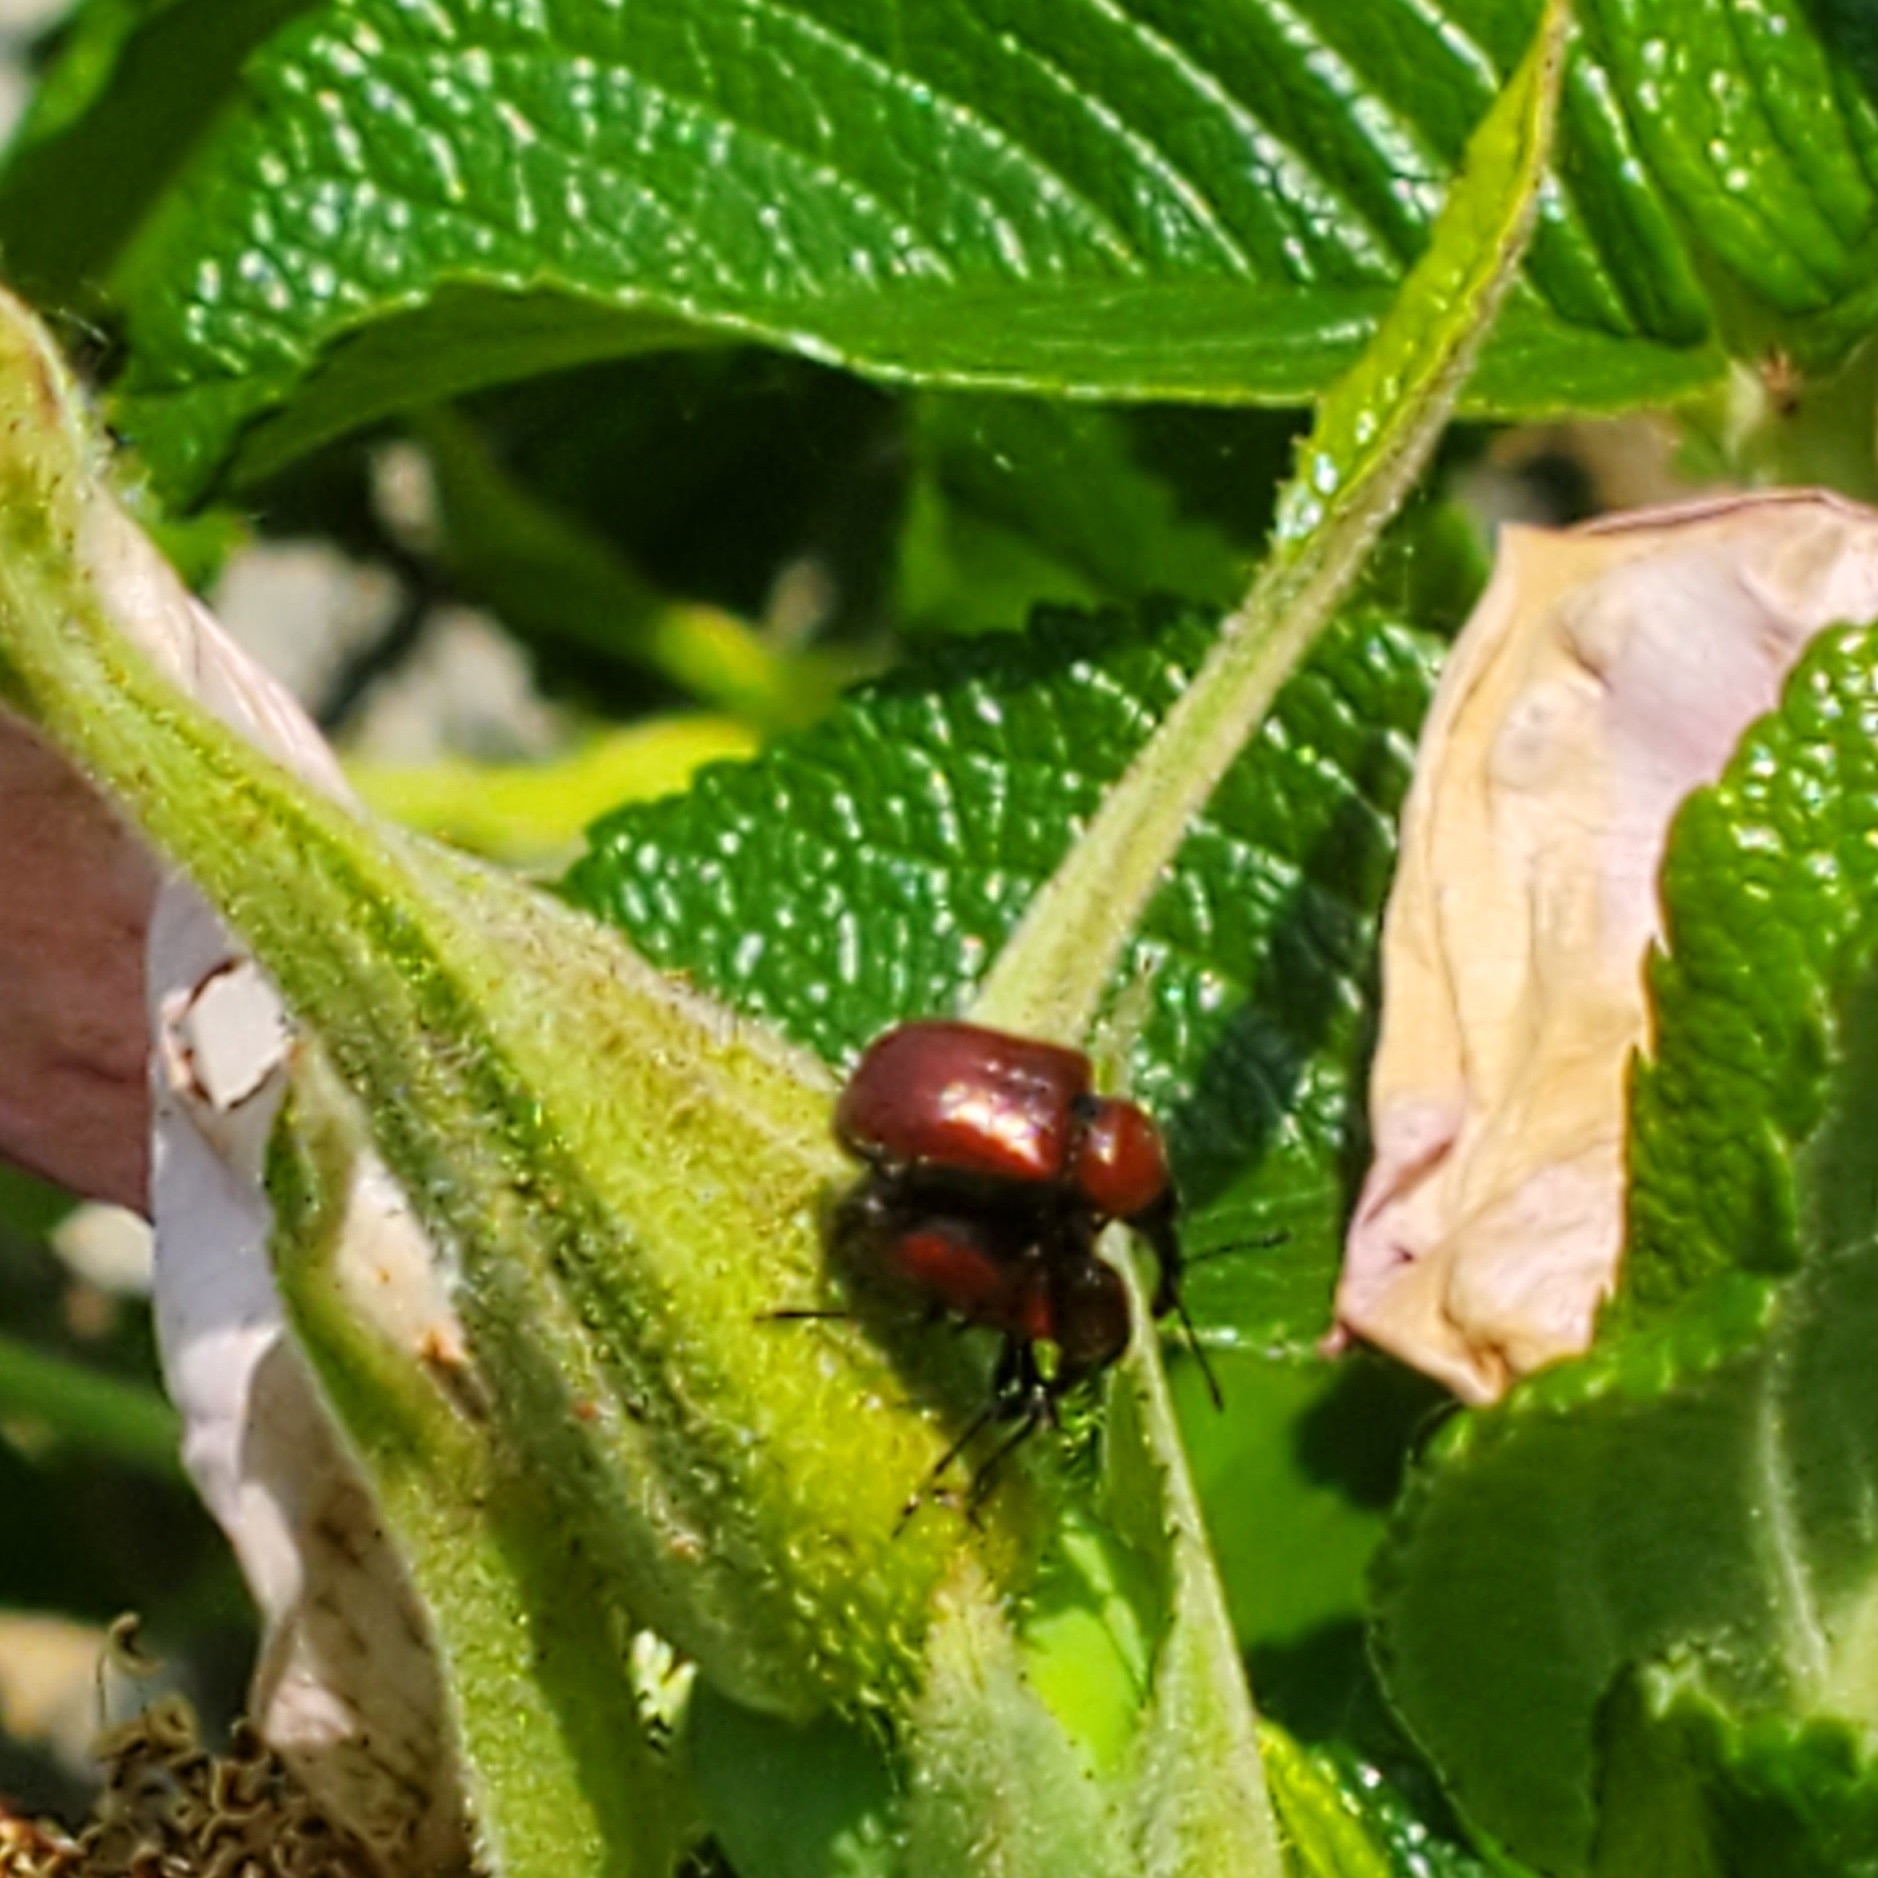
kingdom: Animalia
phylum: Arthropoda
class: Insecta
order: Coleoptera
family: Attelabidae
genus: Merhynchites
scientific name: Merhynchites bicolor
